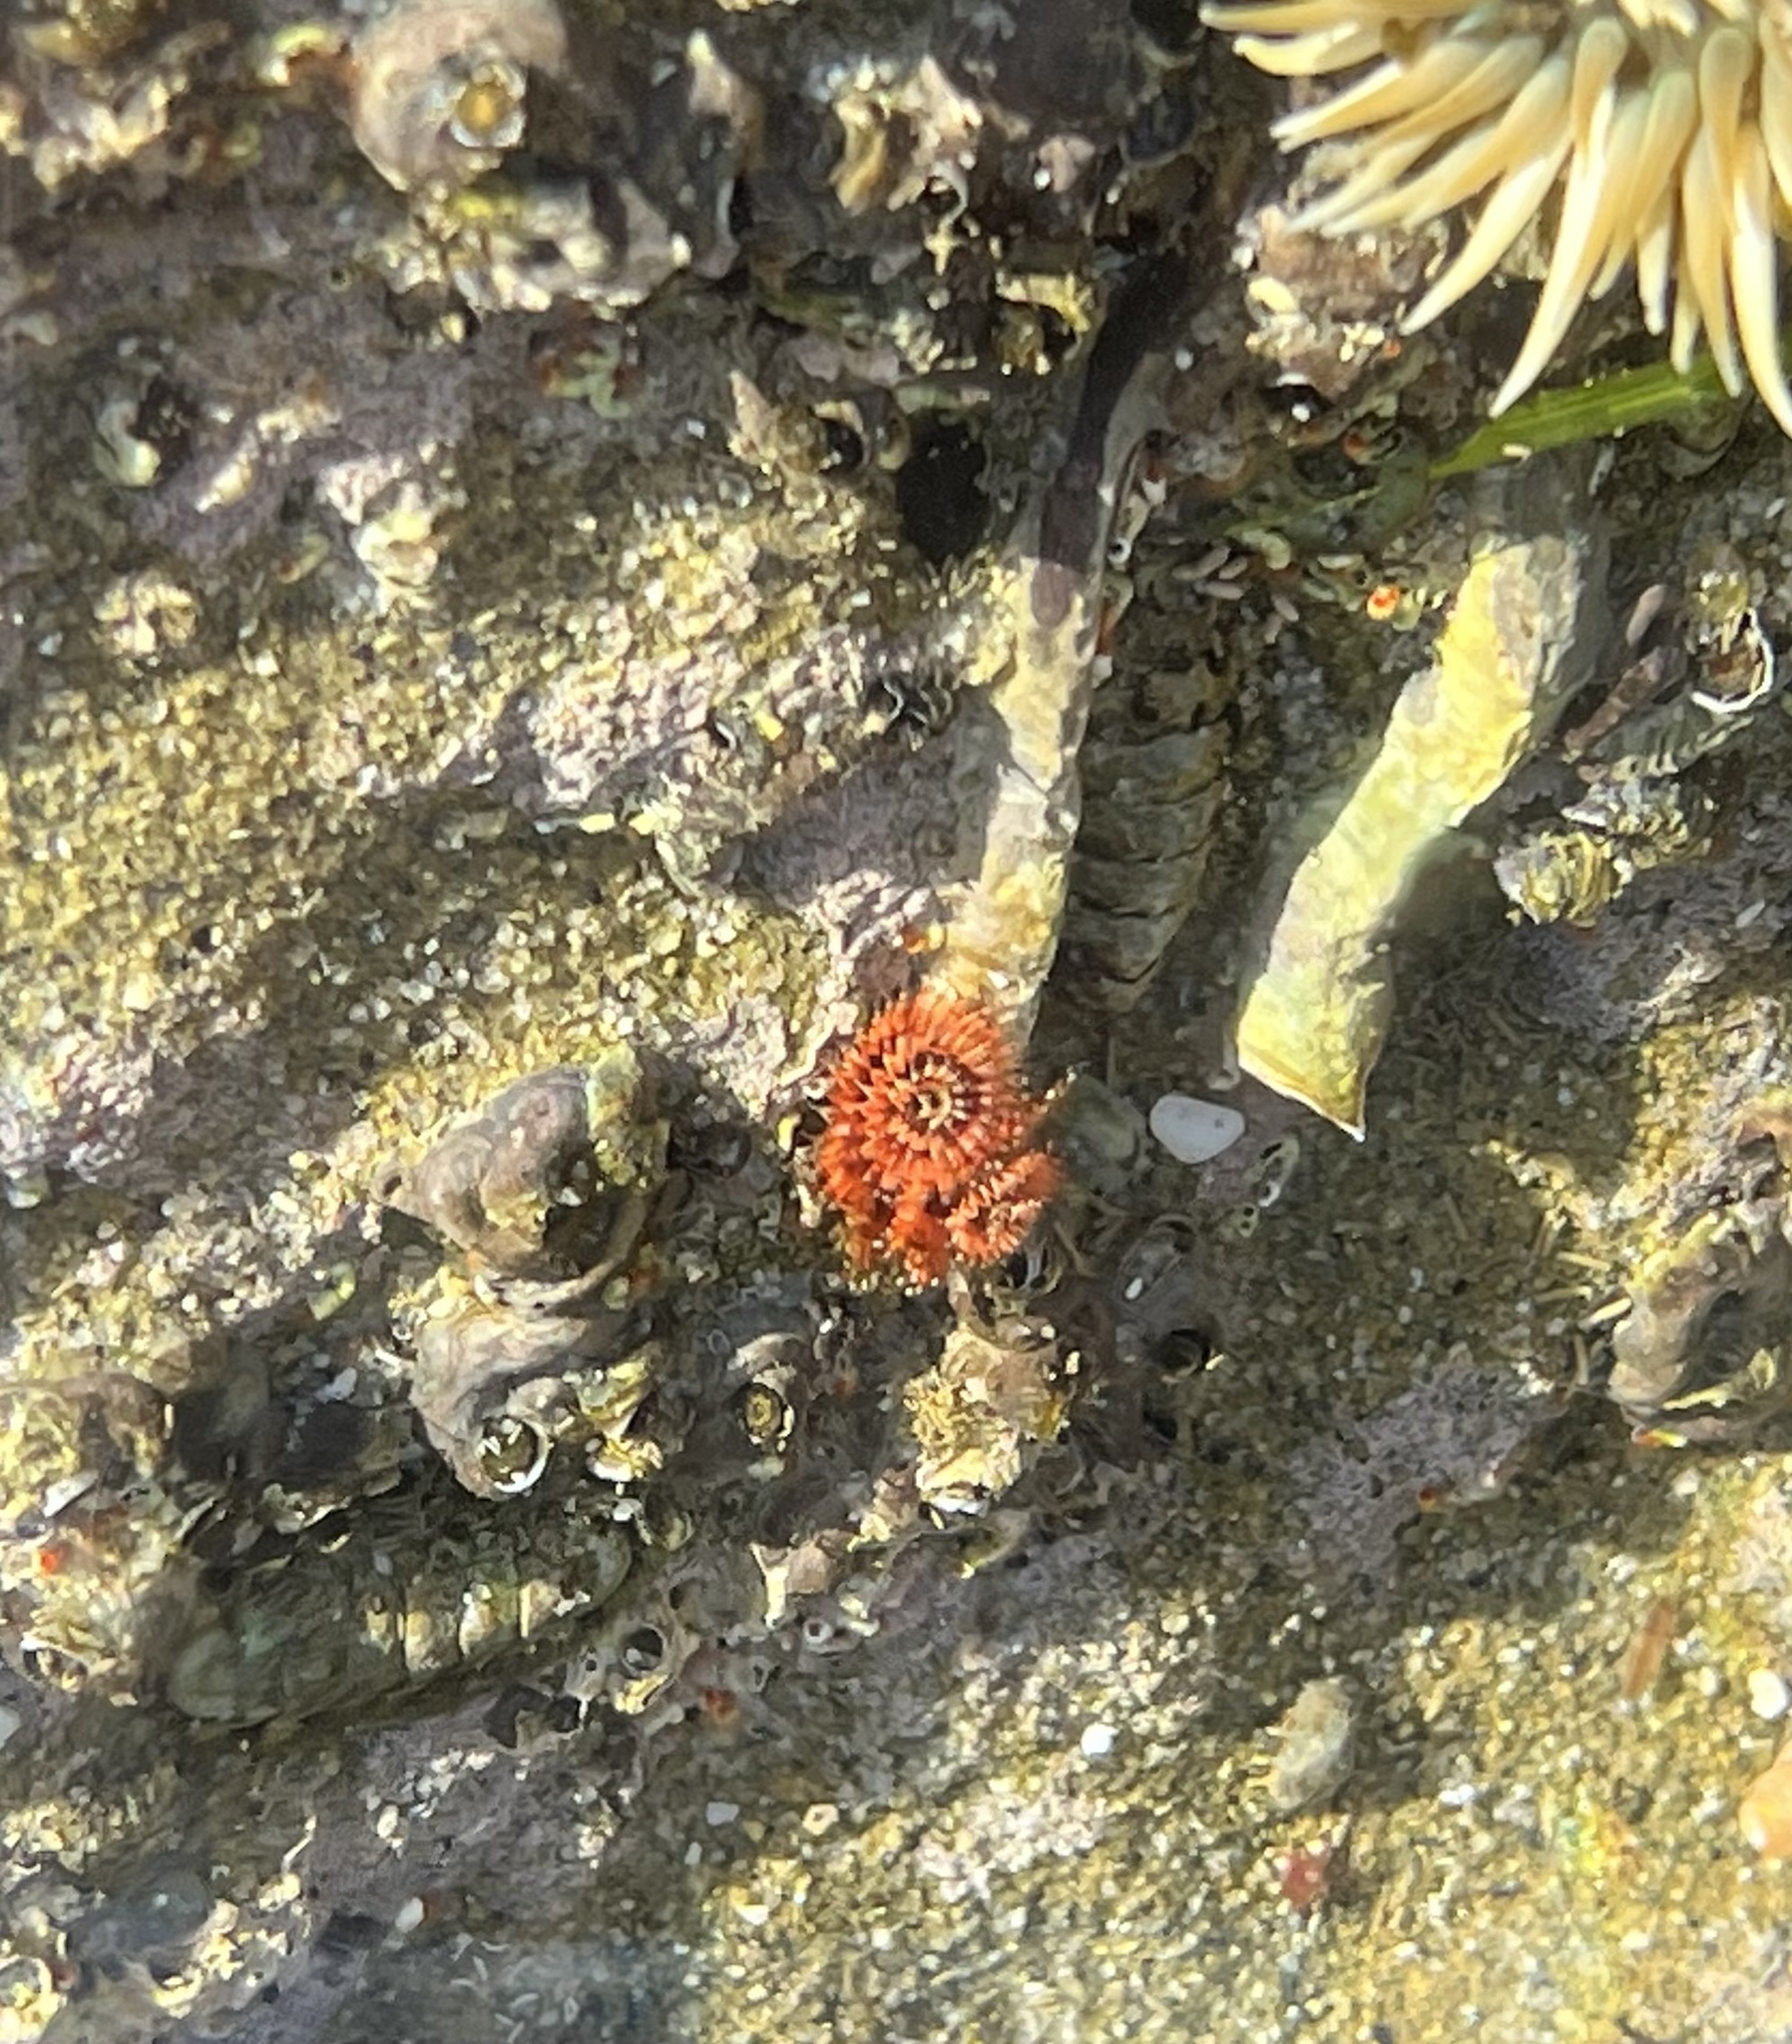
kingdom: Animalia
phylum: Annelida
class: Polychaeta
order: Sabellida
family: Serpulidae
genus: Spirobranchus
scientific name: Spirobranchus spinosus
